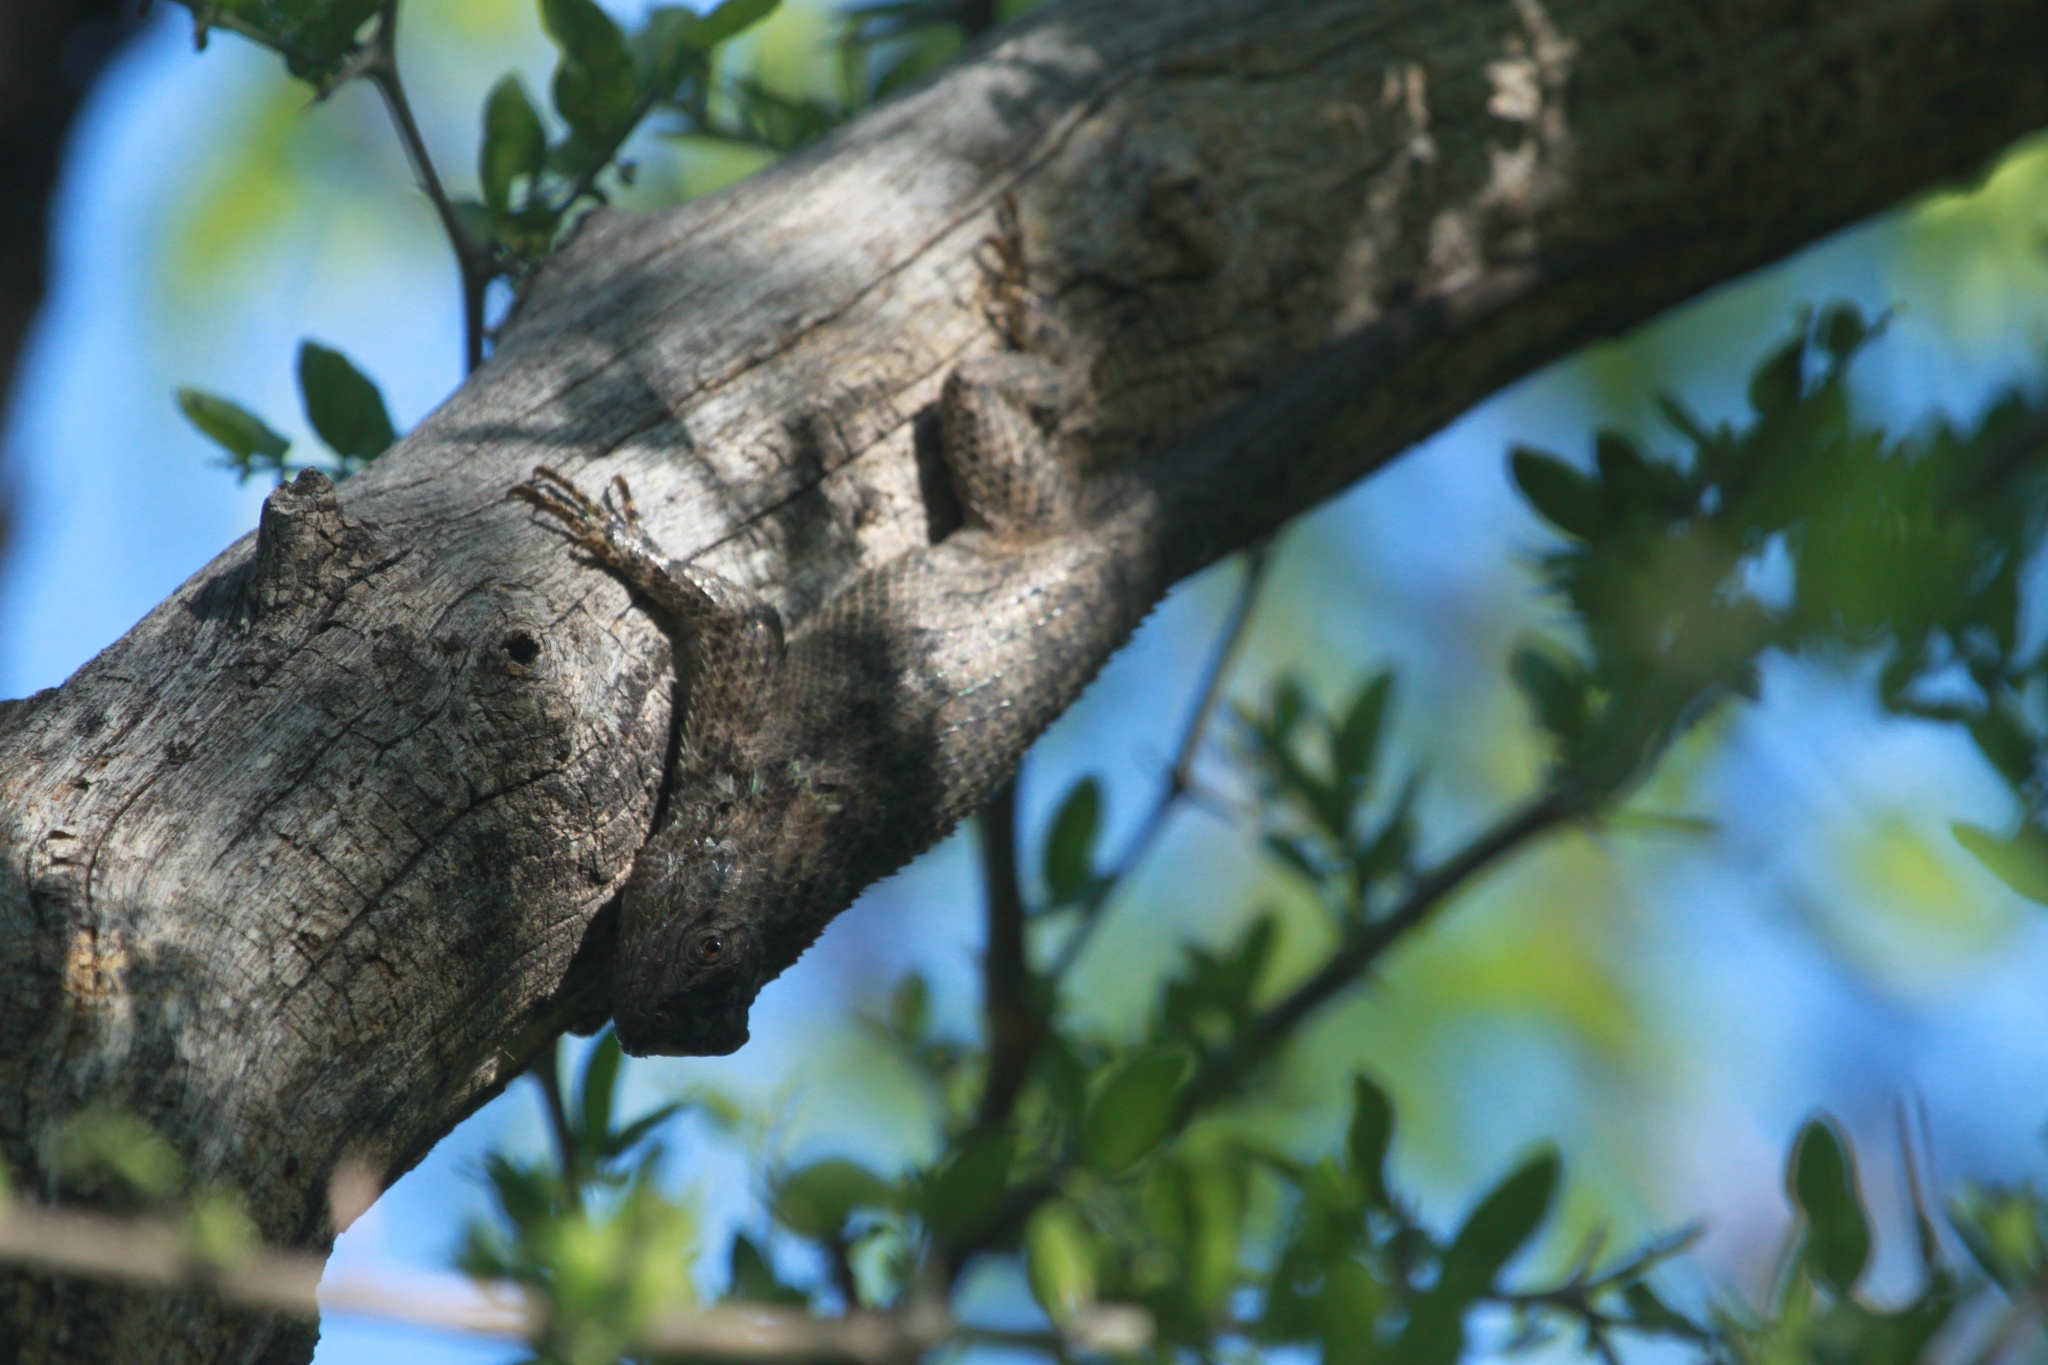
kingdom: Animalia
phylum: Chordata
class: Squamata
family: Phrynosomatidae
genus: Sceloporus
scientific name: Sceloporus clarkii
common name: Clark's spiny lizard
